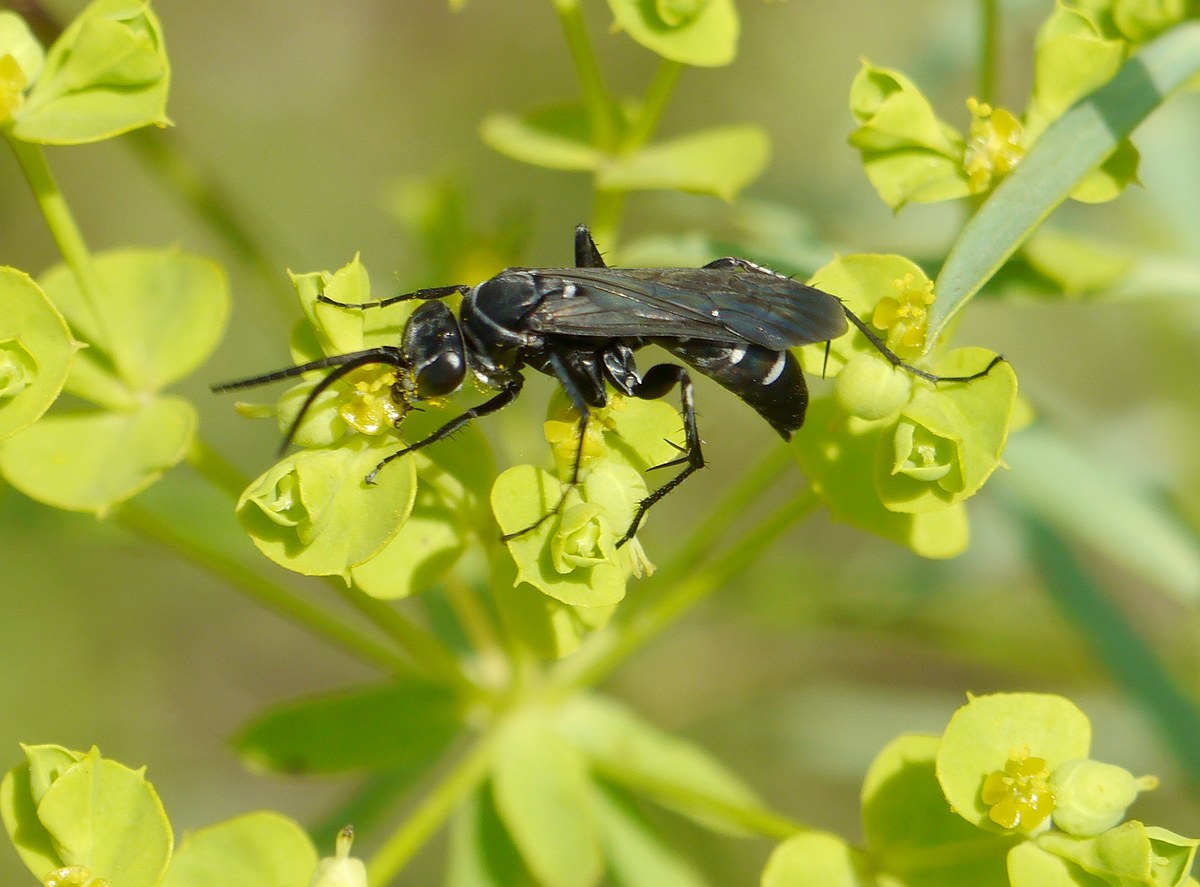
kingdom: Animalia
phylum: Arthropoda
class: Insecta
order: Hymenoptera
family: Pompilidae
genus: Episyron
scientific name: Episyron arrogans
